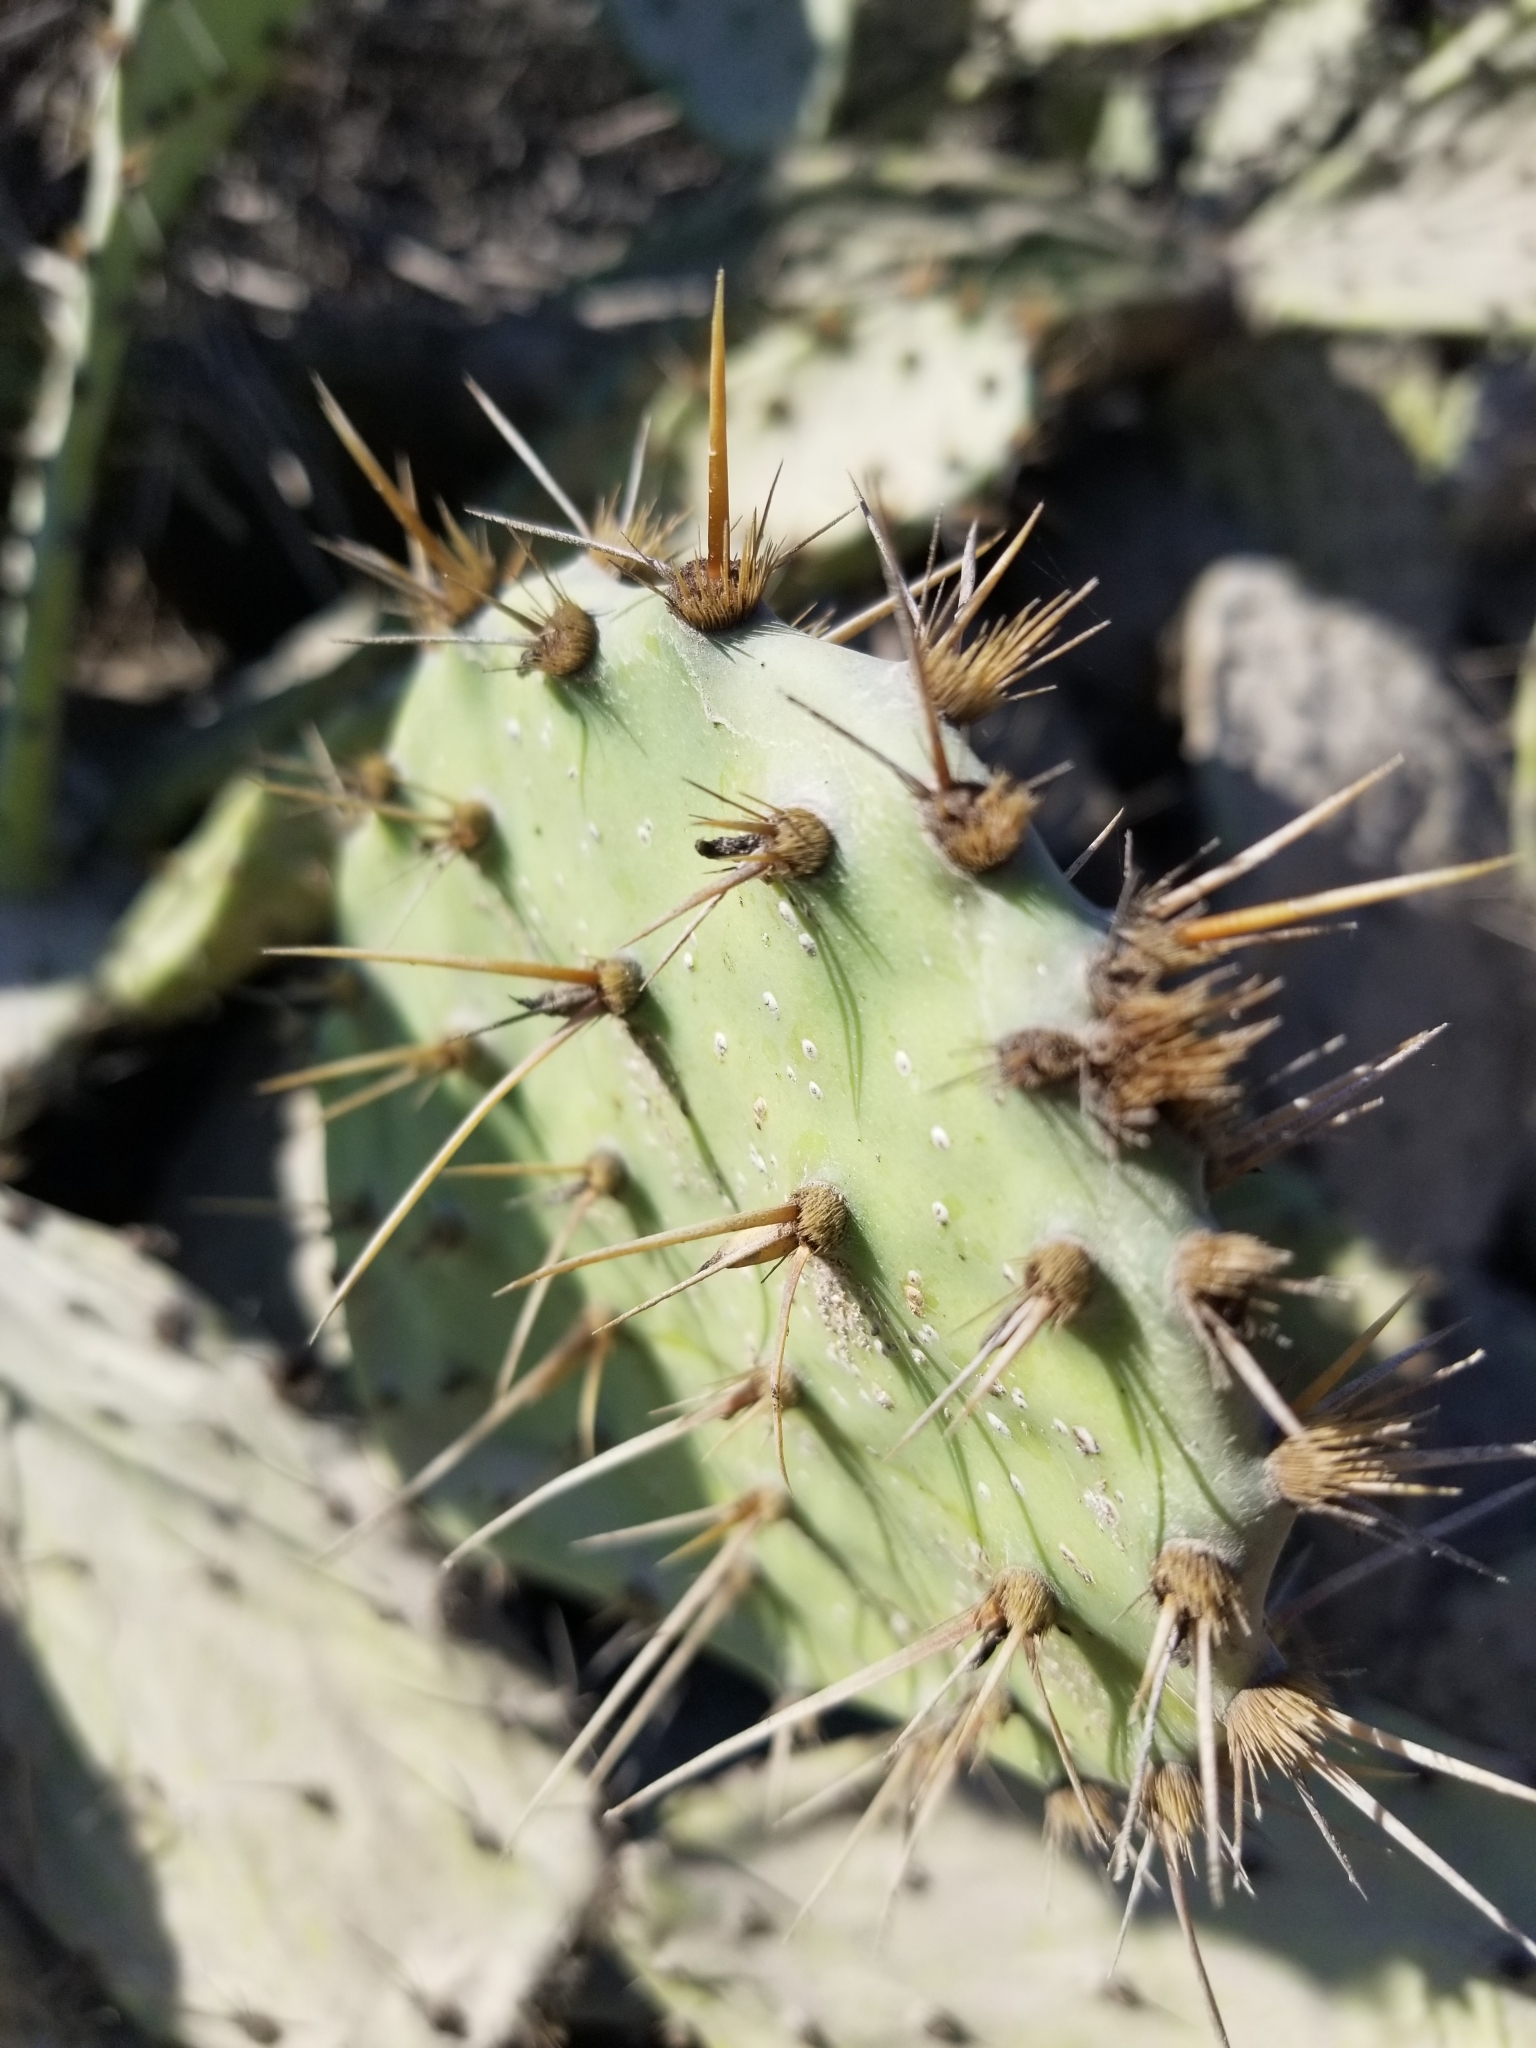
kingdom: Plantae
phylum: Tracheophyta
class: Magnoliopsida
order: Caryophyllales
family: Cactaceae
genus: Opuntia
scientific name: Opuntia littoralis
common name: Coastal prickly-pear
